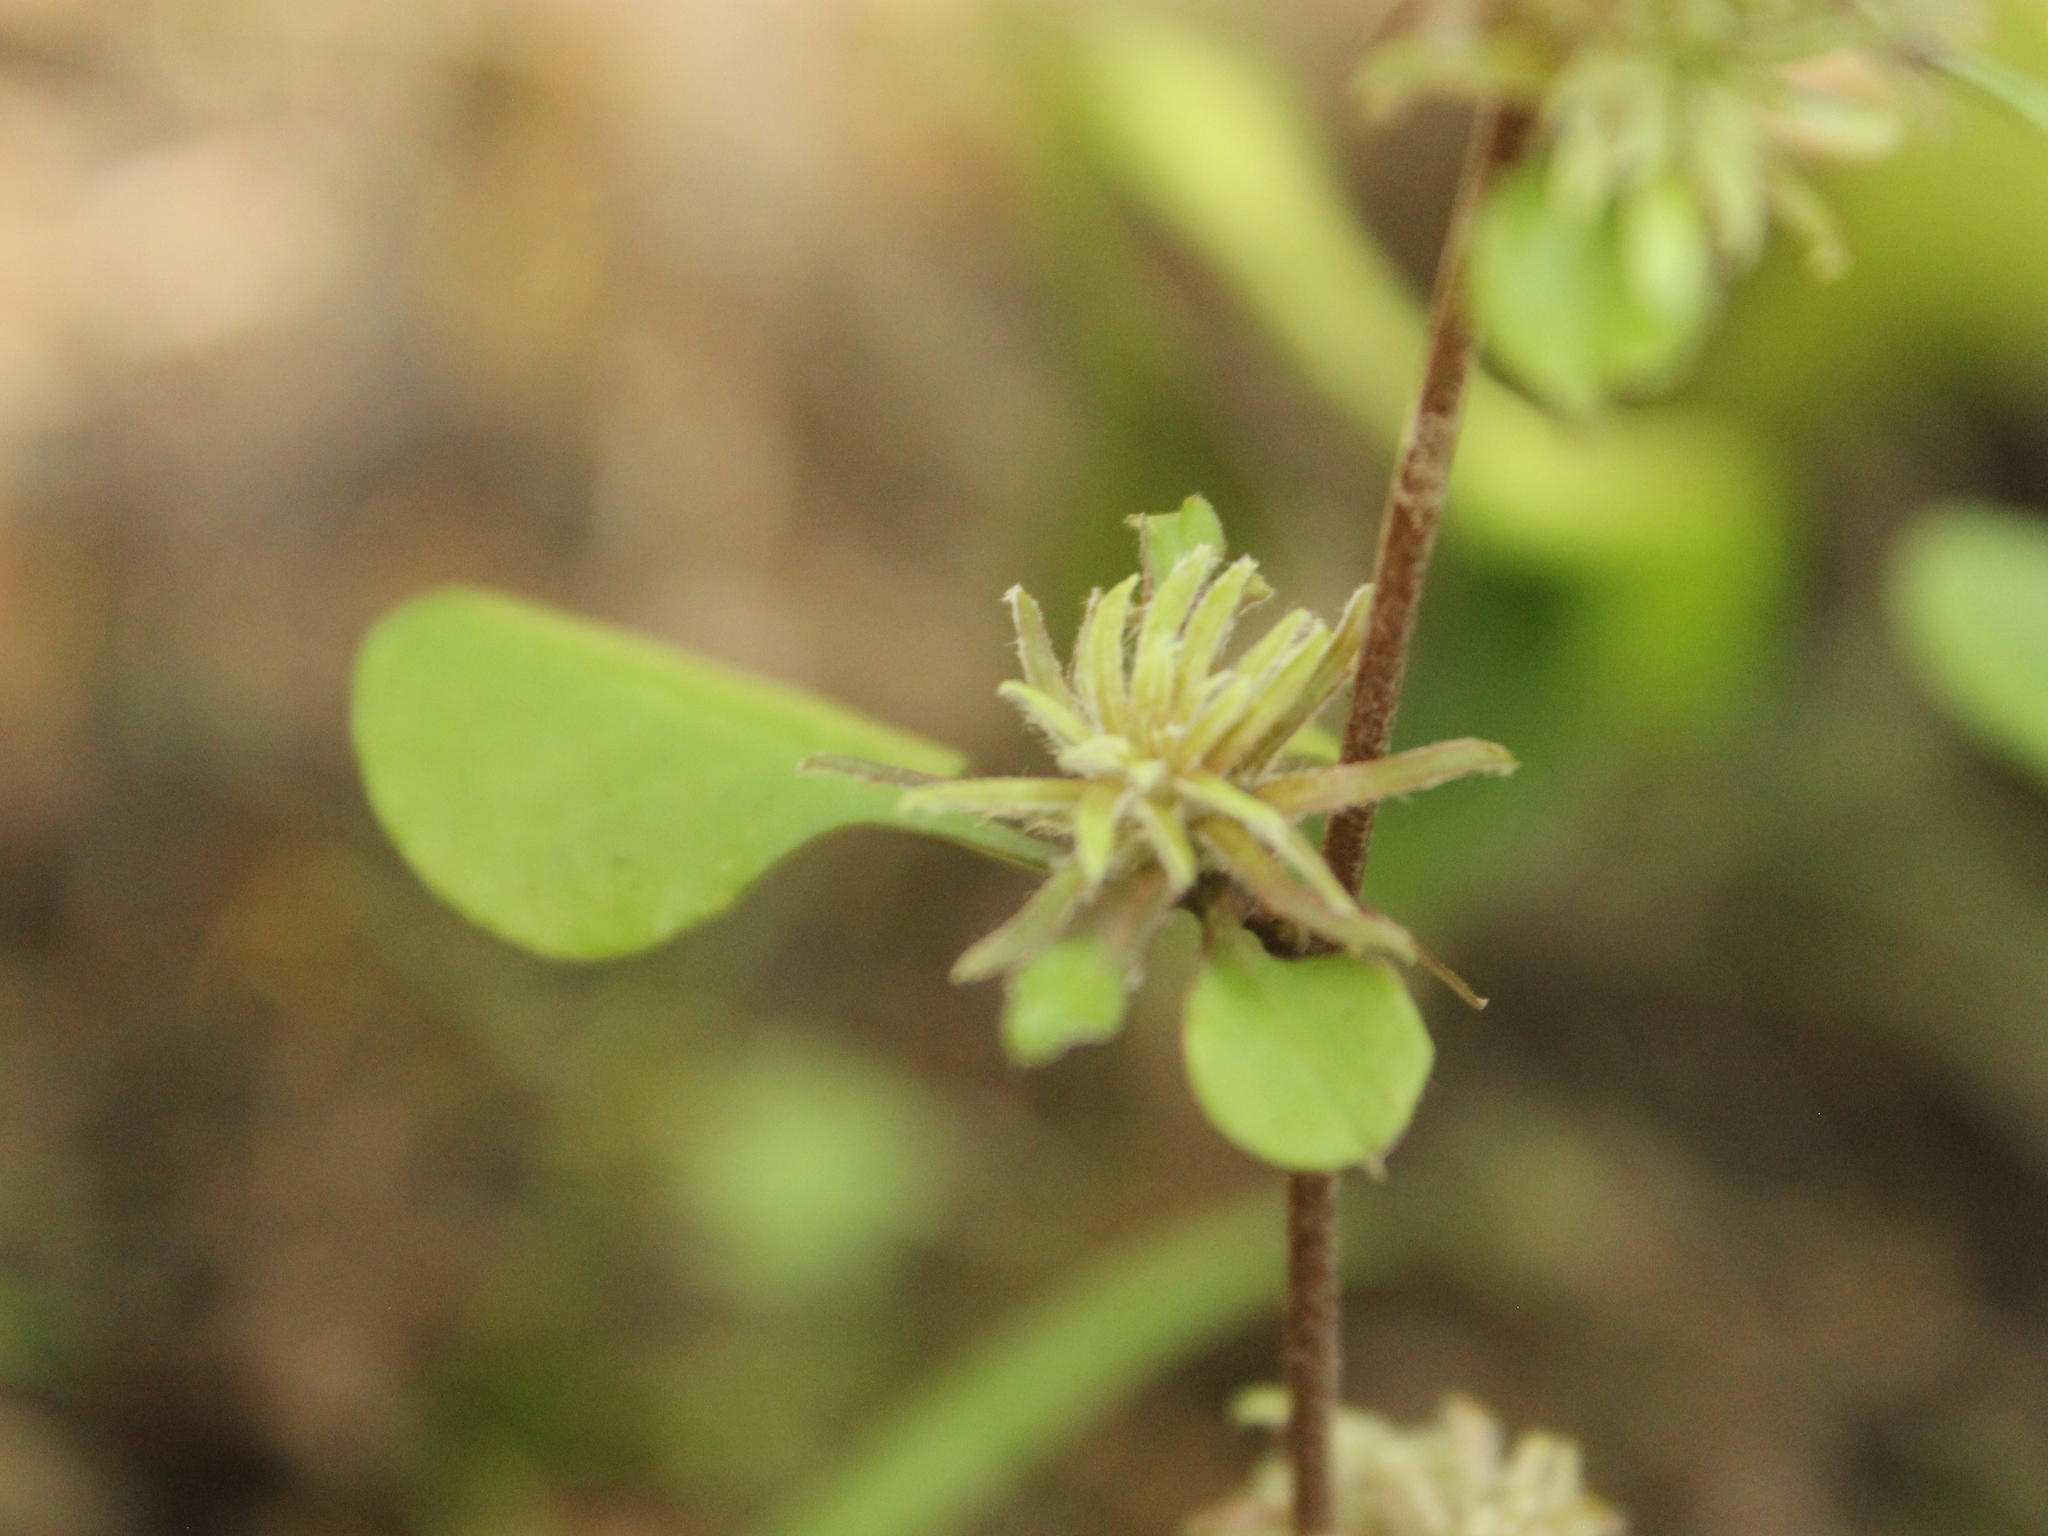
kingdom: Plantae
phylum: Tracheophyta
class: Magnoliopsida
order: Asterales
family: Asteraceae
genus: Ozothamnus
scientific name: Ozothamnus glomeratus
